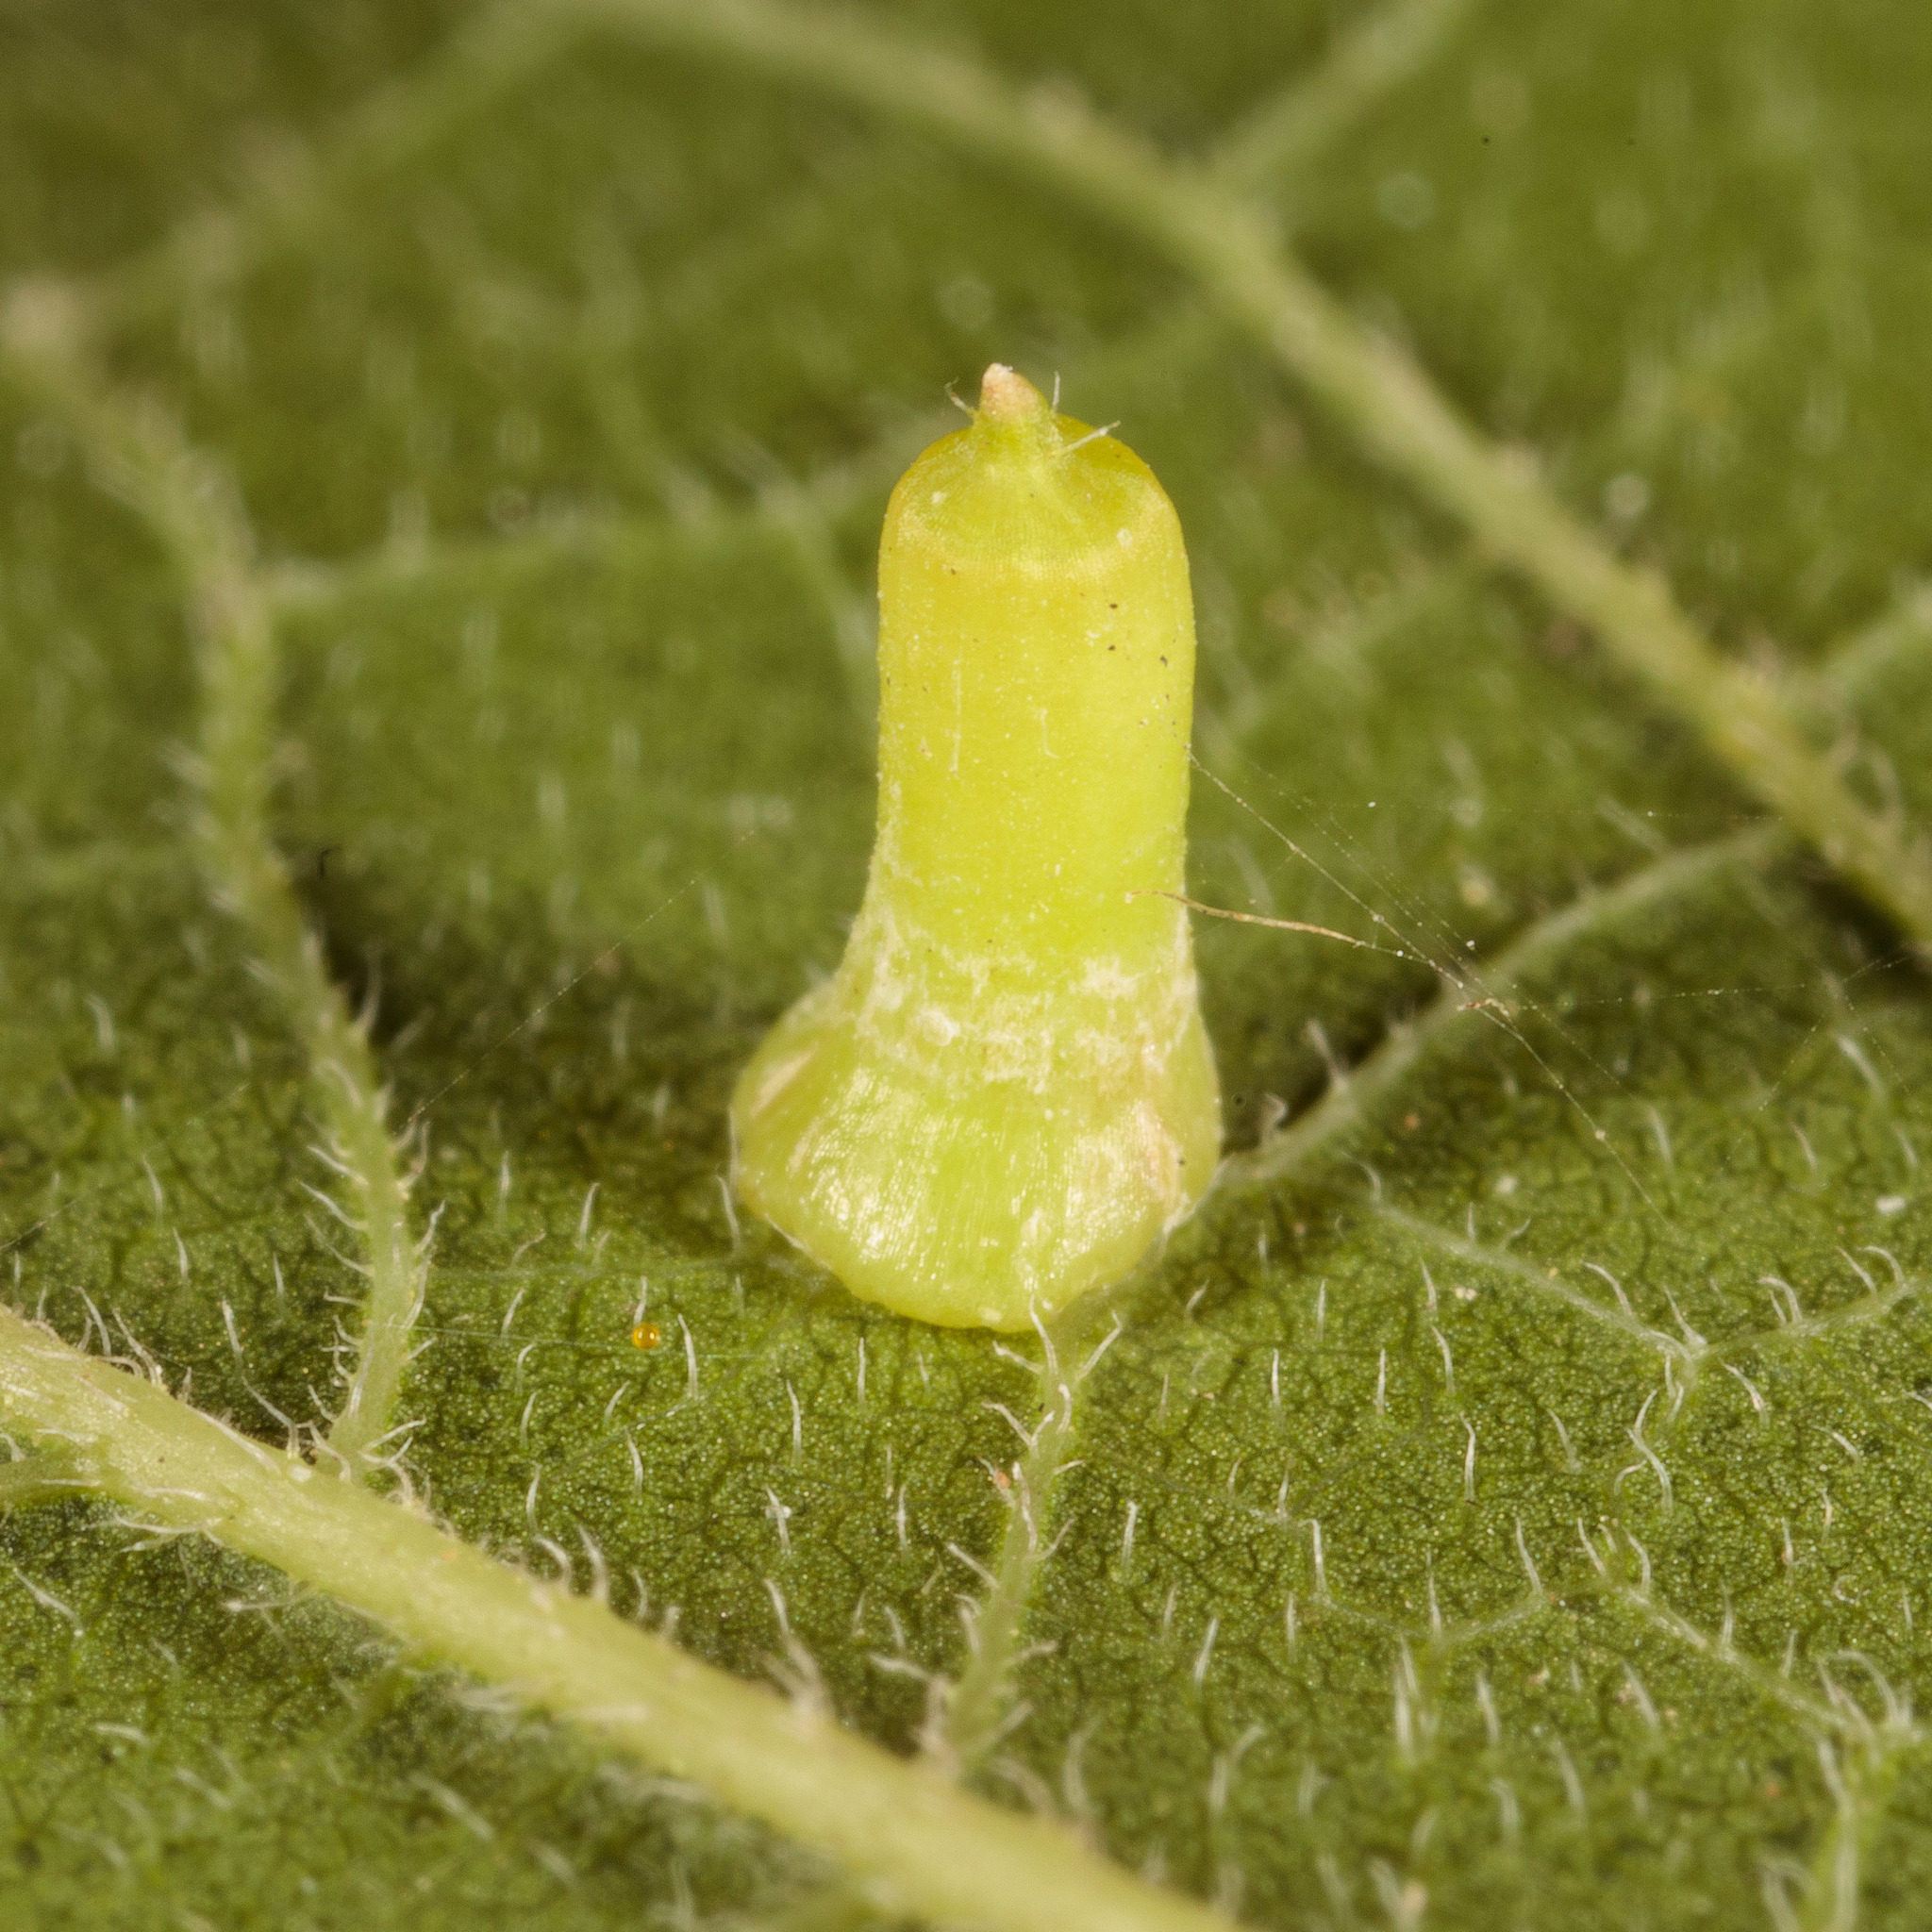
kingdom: Animalia
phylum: Arthropoda
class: Insecta
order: Diptera
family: Cecidomyiidae
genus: Celticecis
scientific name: Celticecis aciculata
